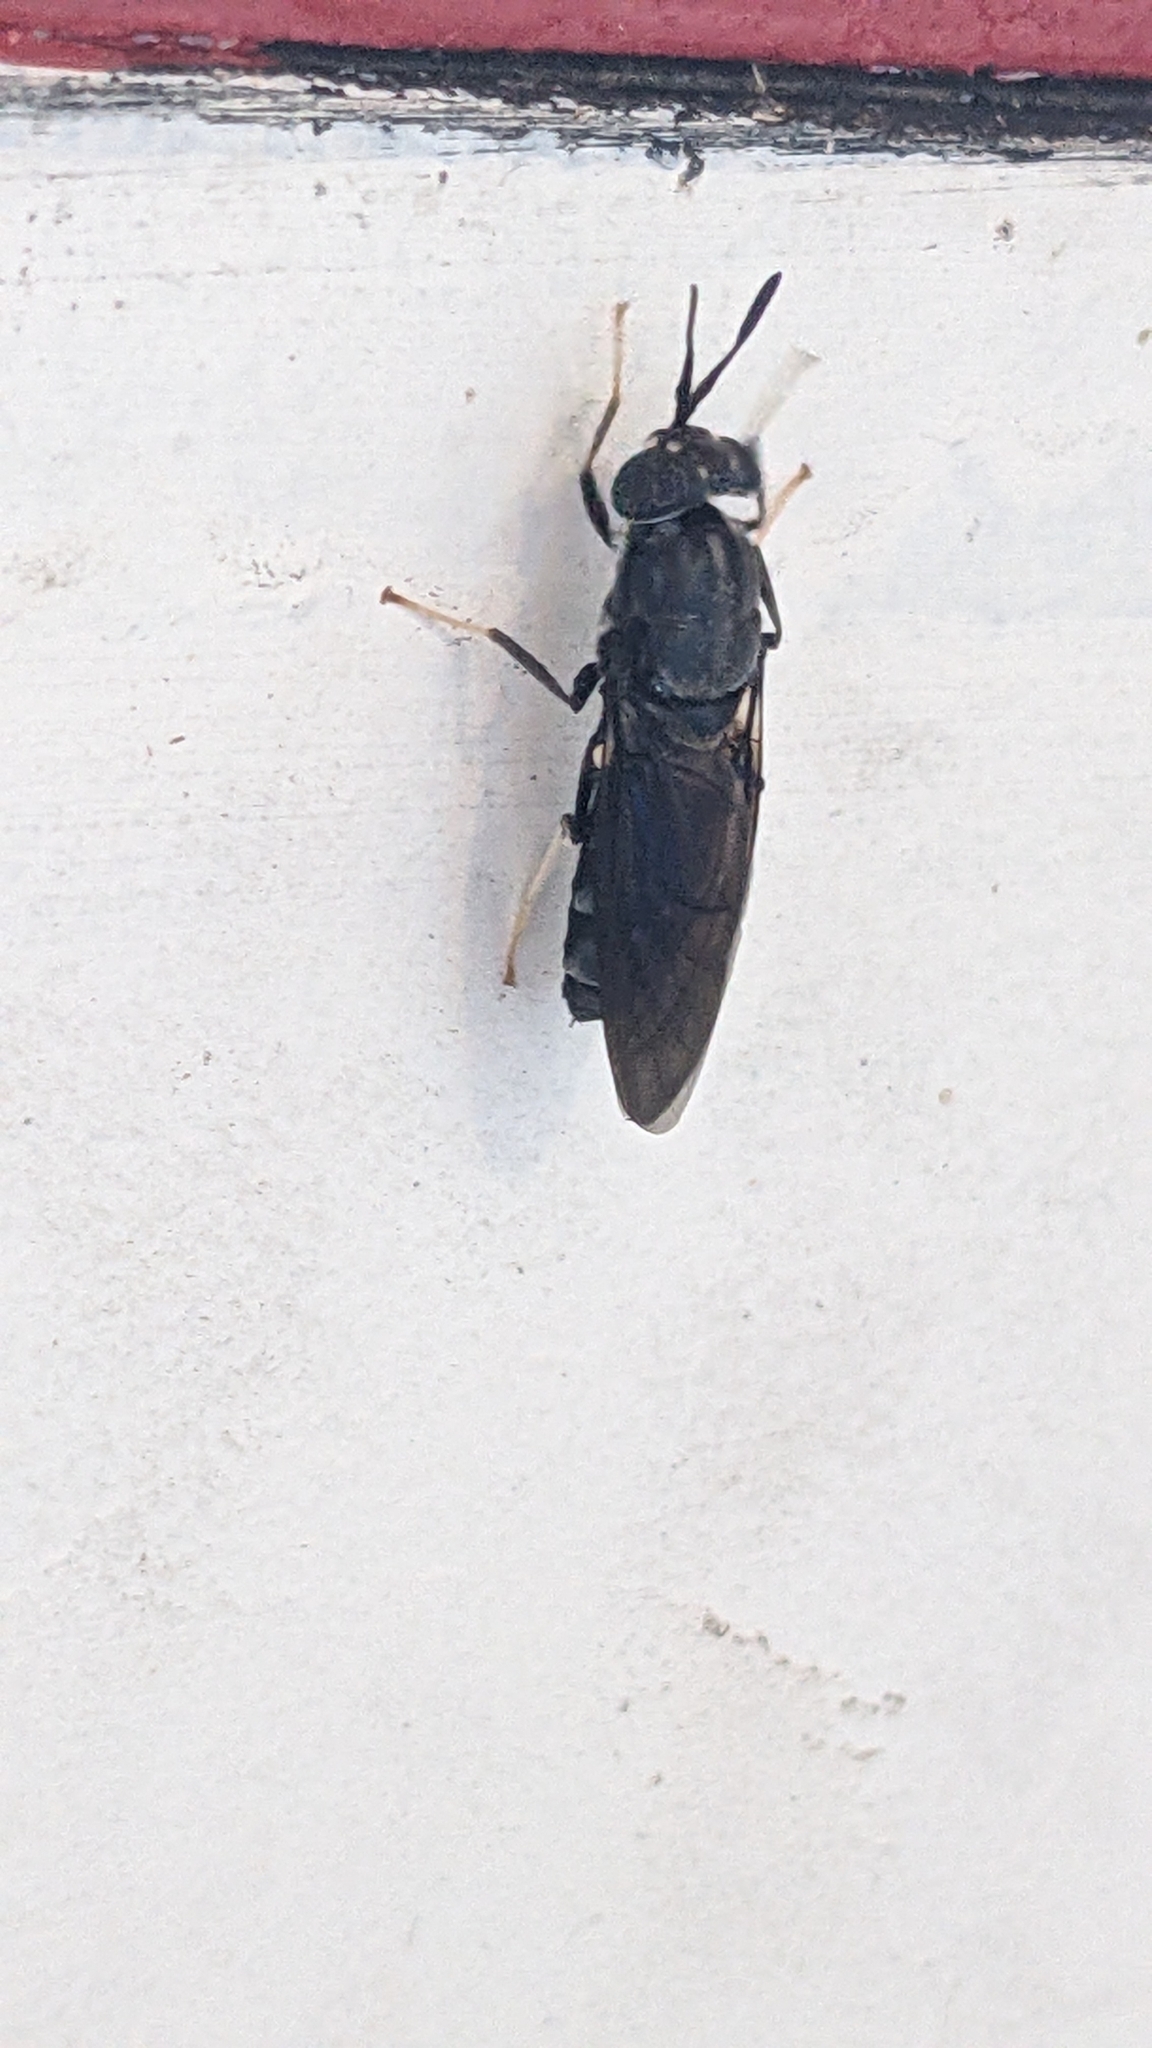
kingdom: Animalia
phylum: Arthropoda
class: Insecta
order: Diptera
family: Stratiomyidae
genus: Hermetia
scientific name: Hermetia illucens
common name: Black soldier fly
